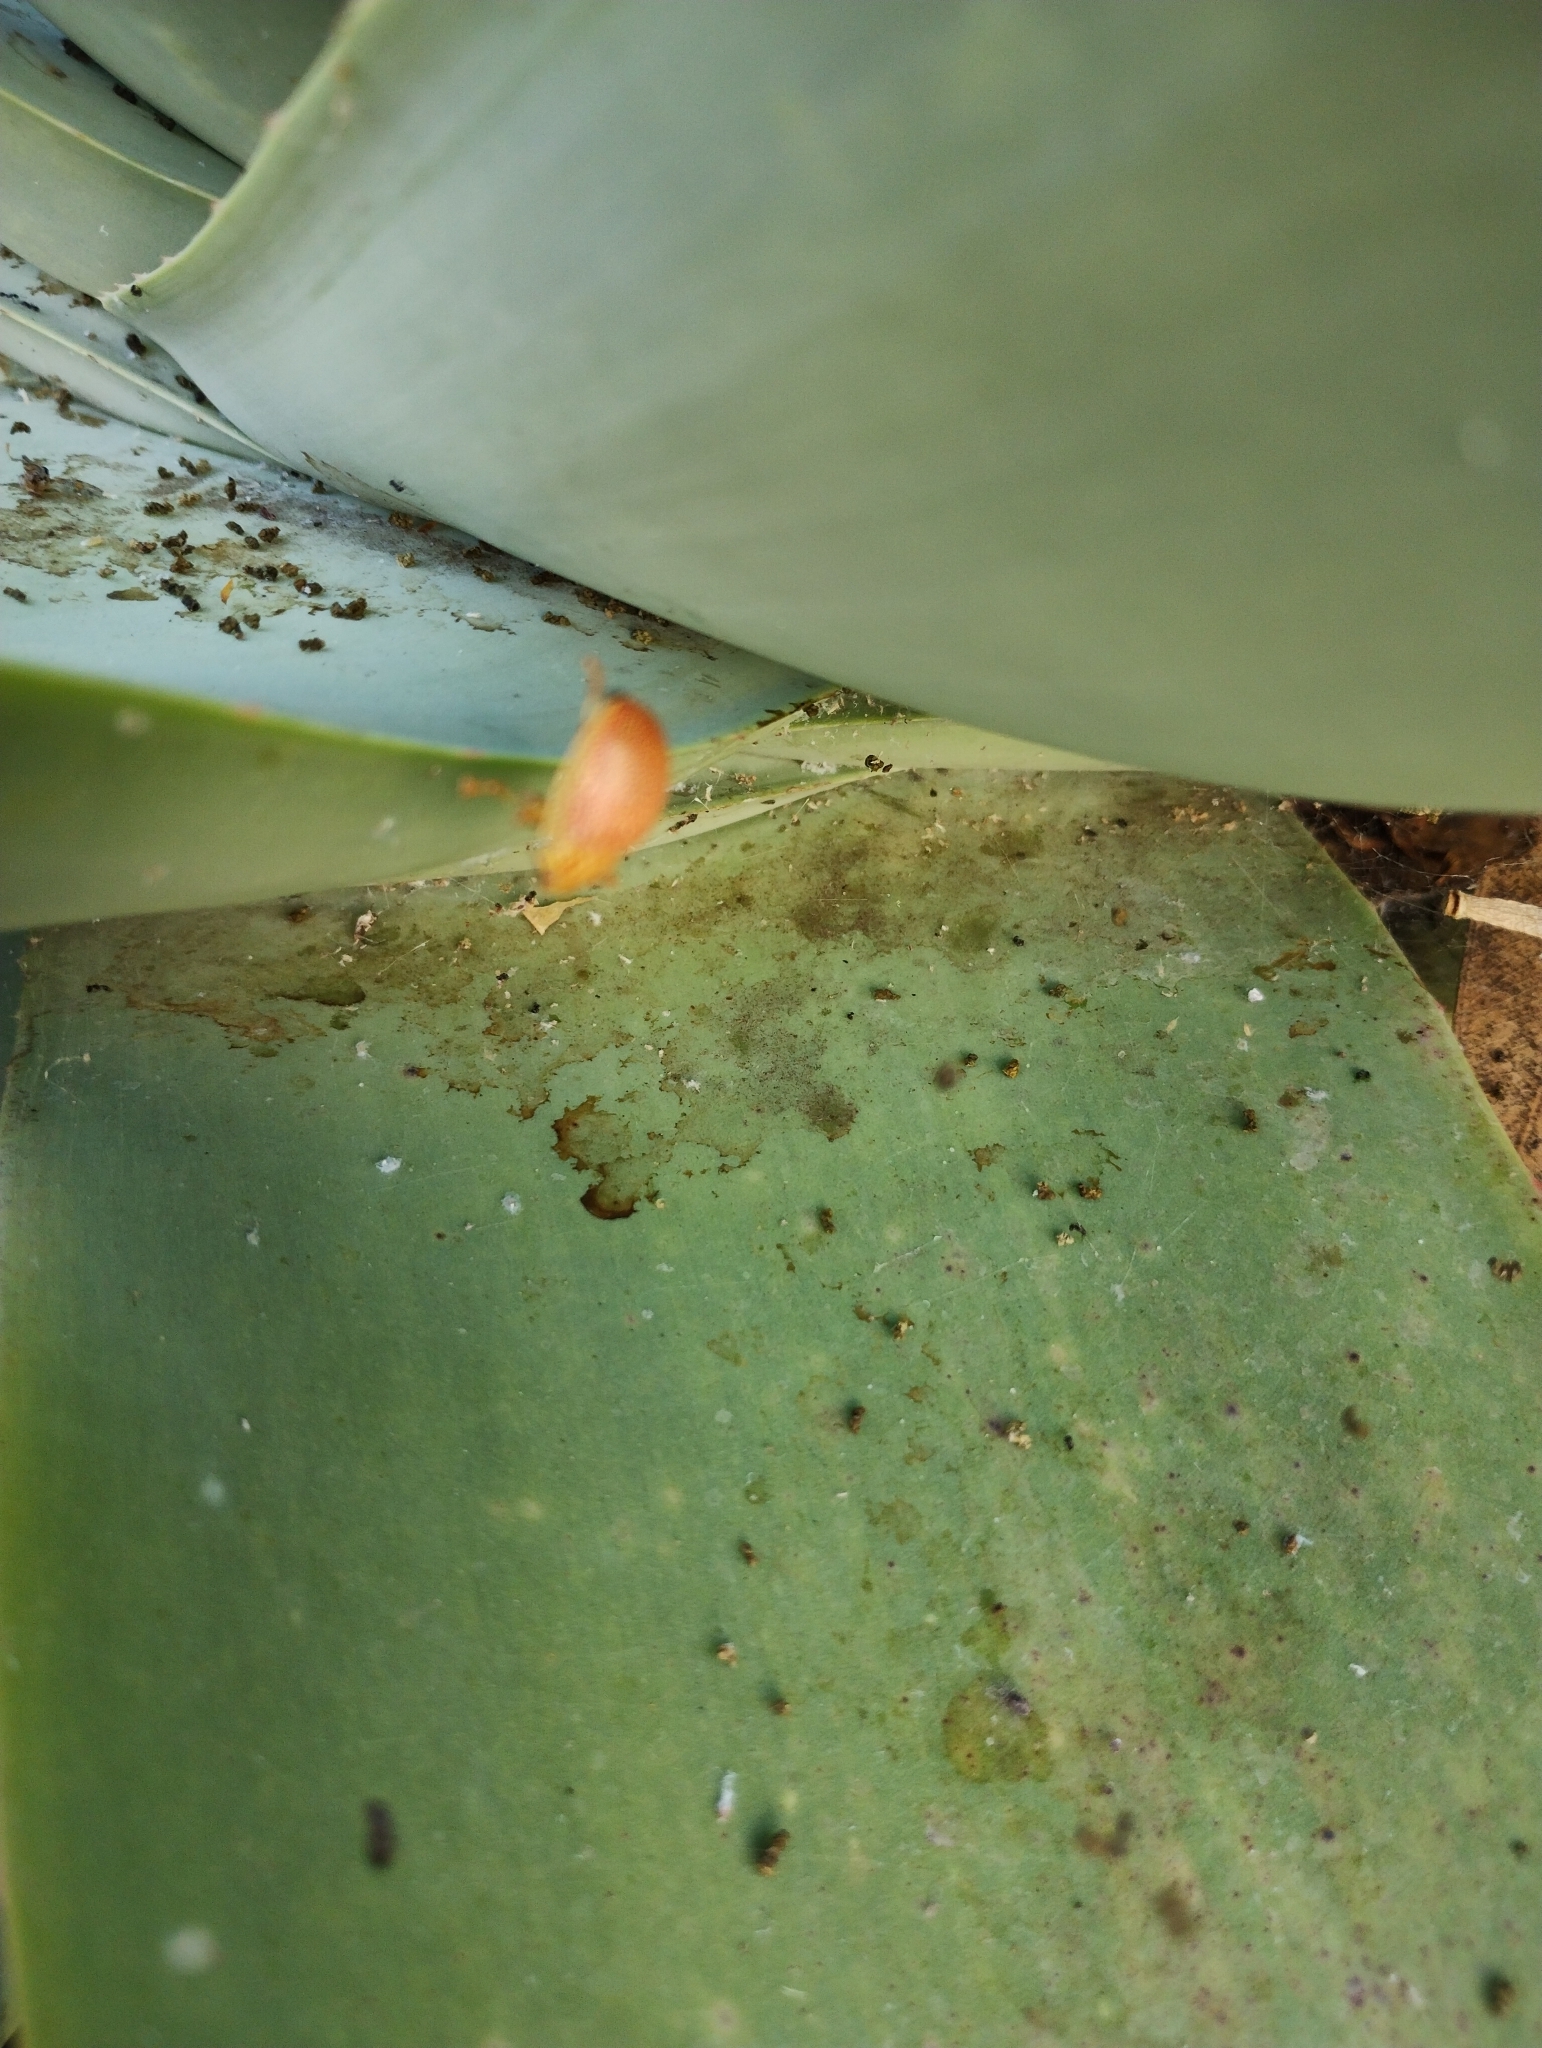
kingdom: Animalia
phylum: Arthropoda
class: Insecta
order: Coleoptera
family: Chrysomelidae
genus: Paropsis
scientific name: Paropsis
